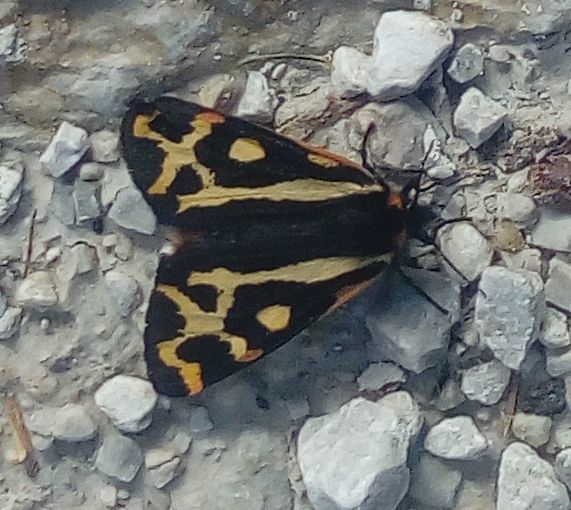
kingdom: Animalia
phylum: Arthropoda
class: Insecta
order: Lepidoptera
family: Erebidae
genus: Parasemia
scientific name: Parasemia plantaginis
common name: Wood tiger
